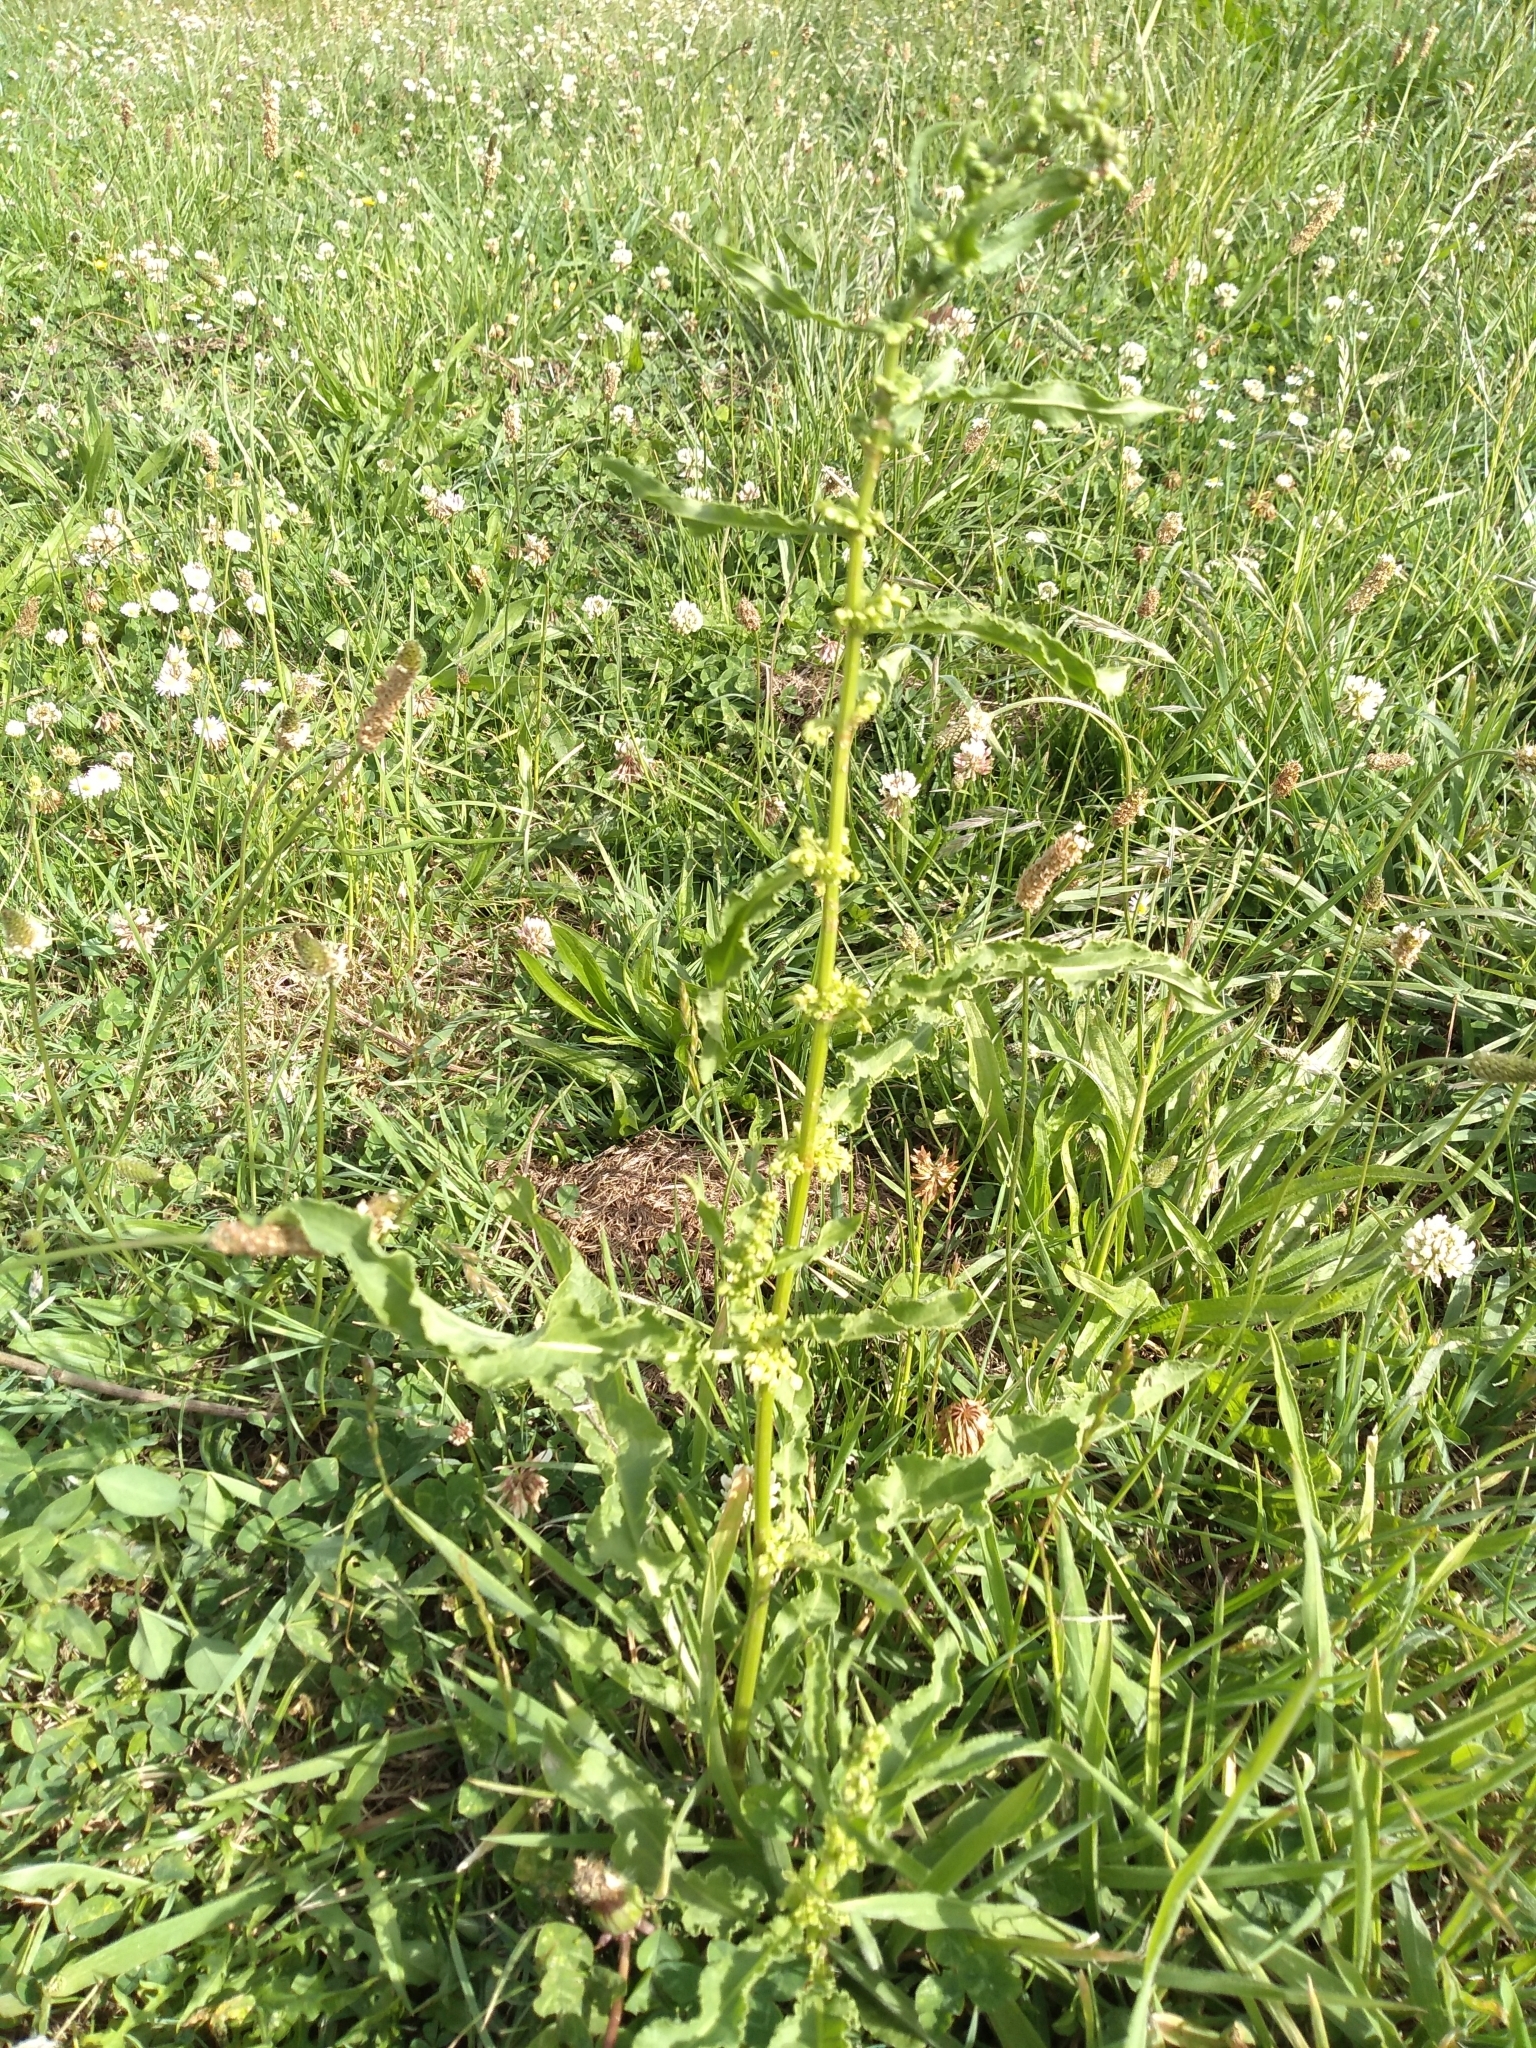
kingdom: Plantae
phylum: Tracheophyta
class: Magnoliopsida
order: Caryophyllales
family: Polygonaceae
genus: Rumex
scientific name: Rumex crispus
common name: Curled dock
